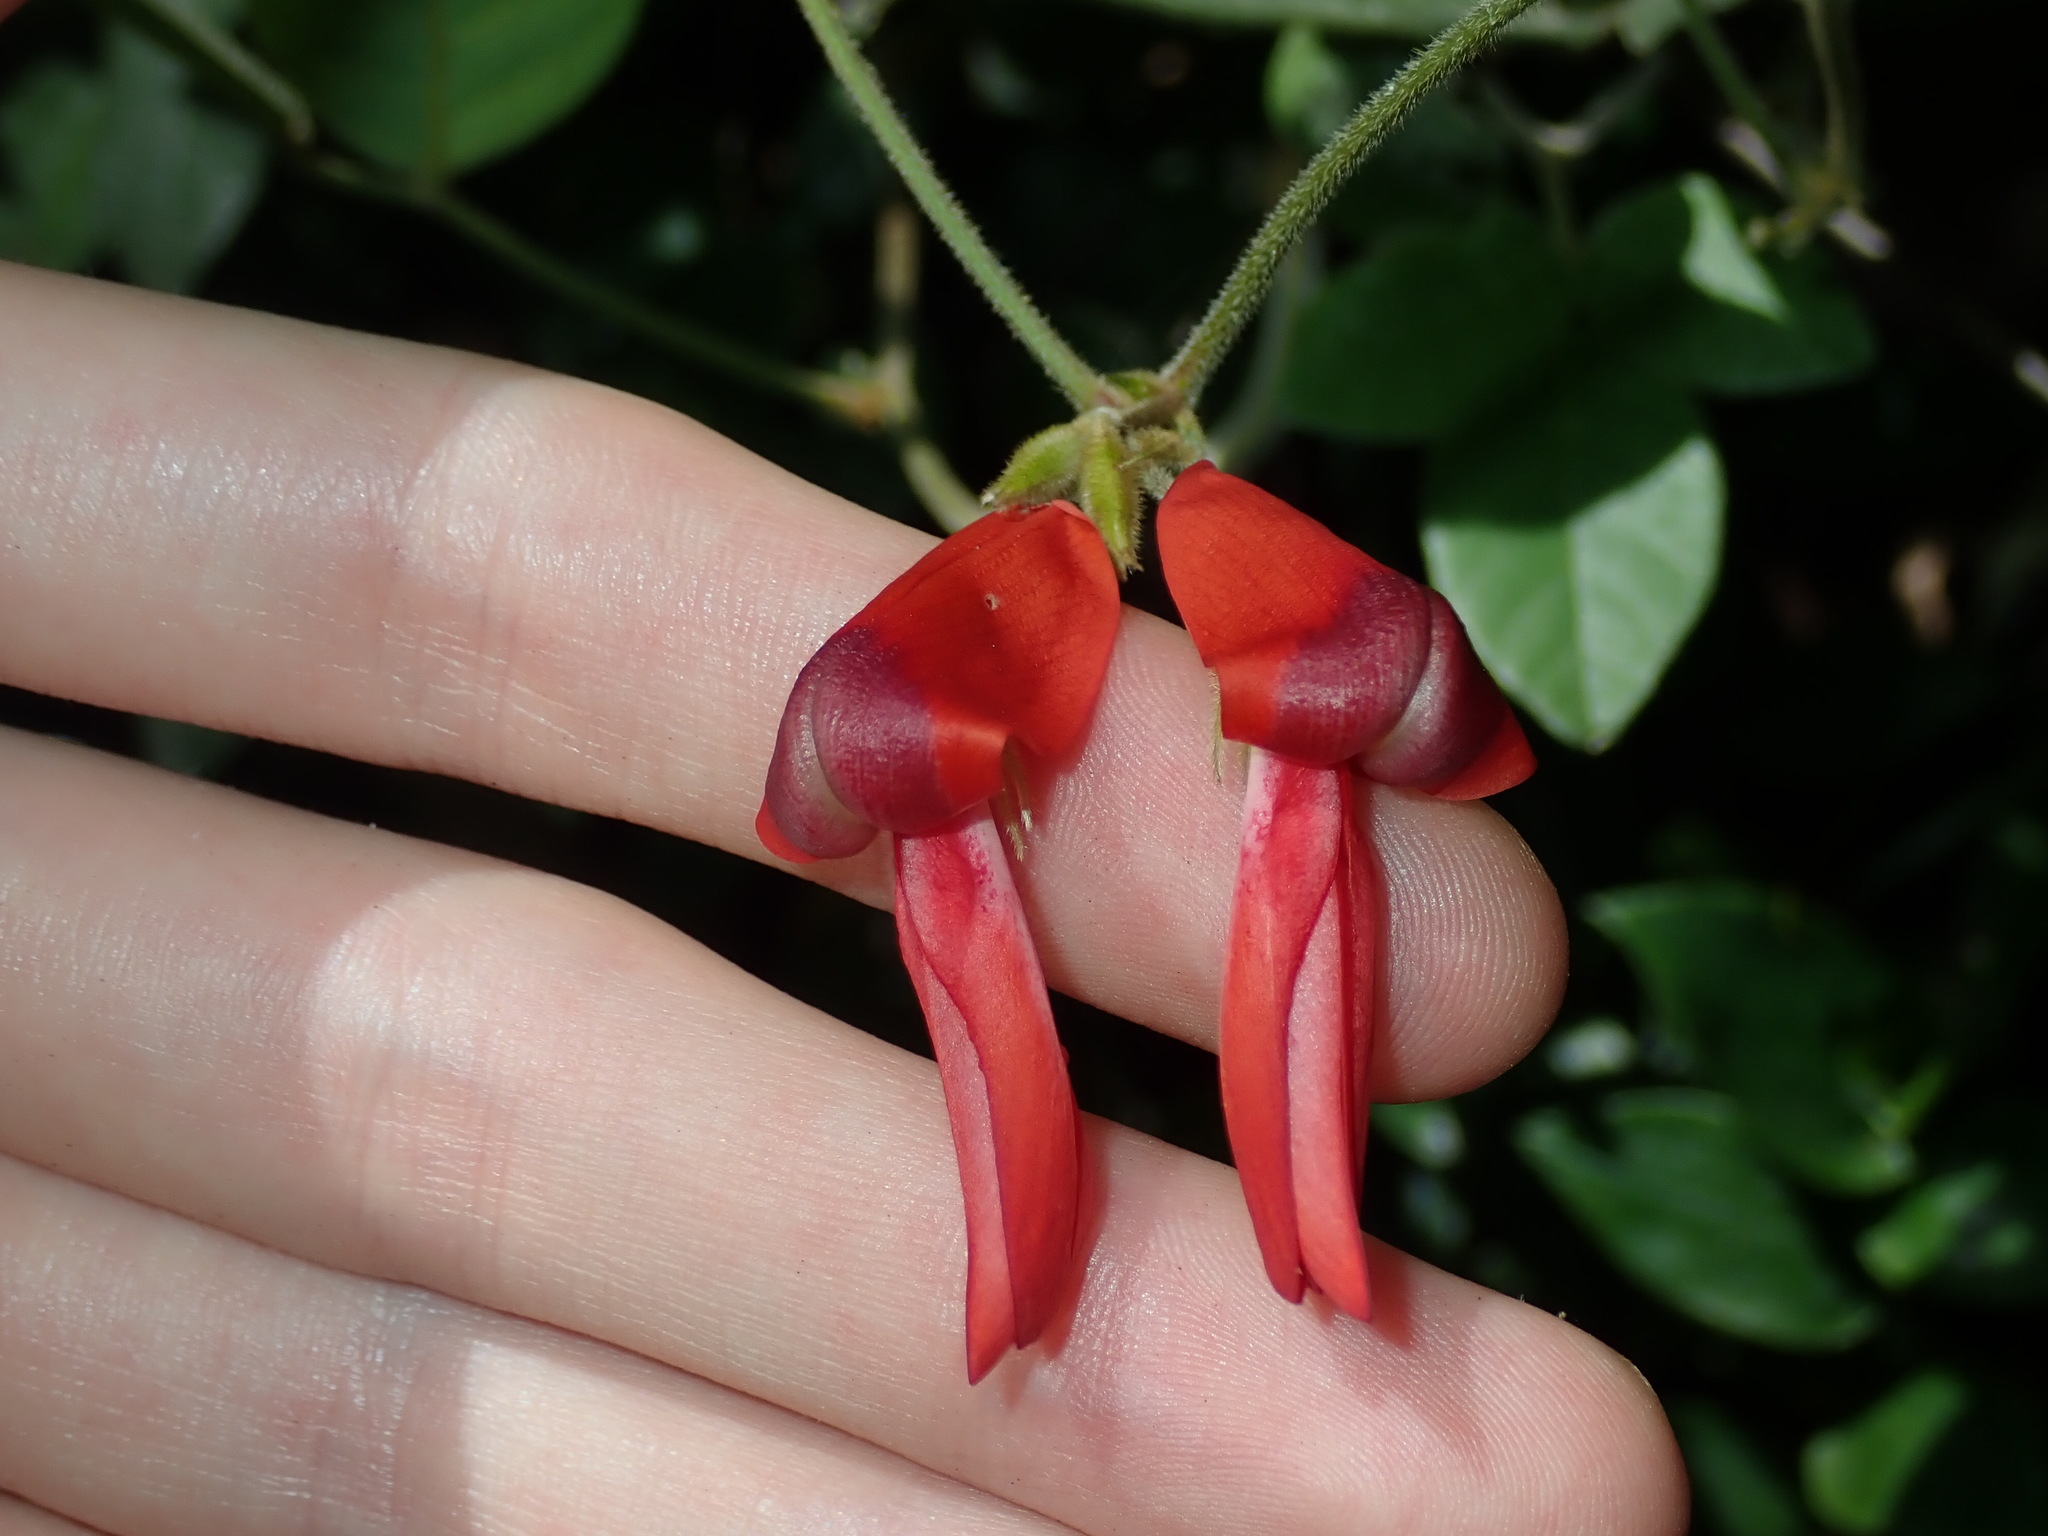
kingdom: Plantae
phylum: Tracheophyta
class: Magnoliopsida
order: Fabales
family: Fabaceae
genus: Kennedia
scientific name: Kennedia rubicunda
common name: Red kennedy-pea
